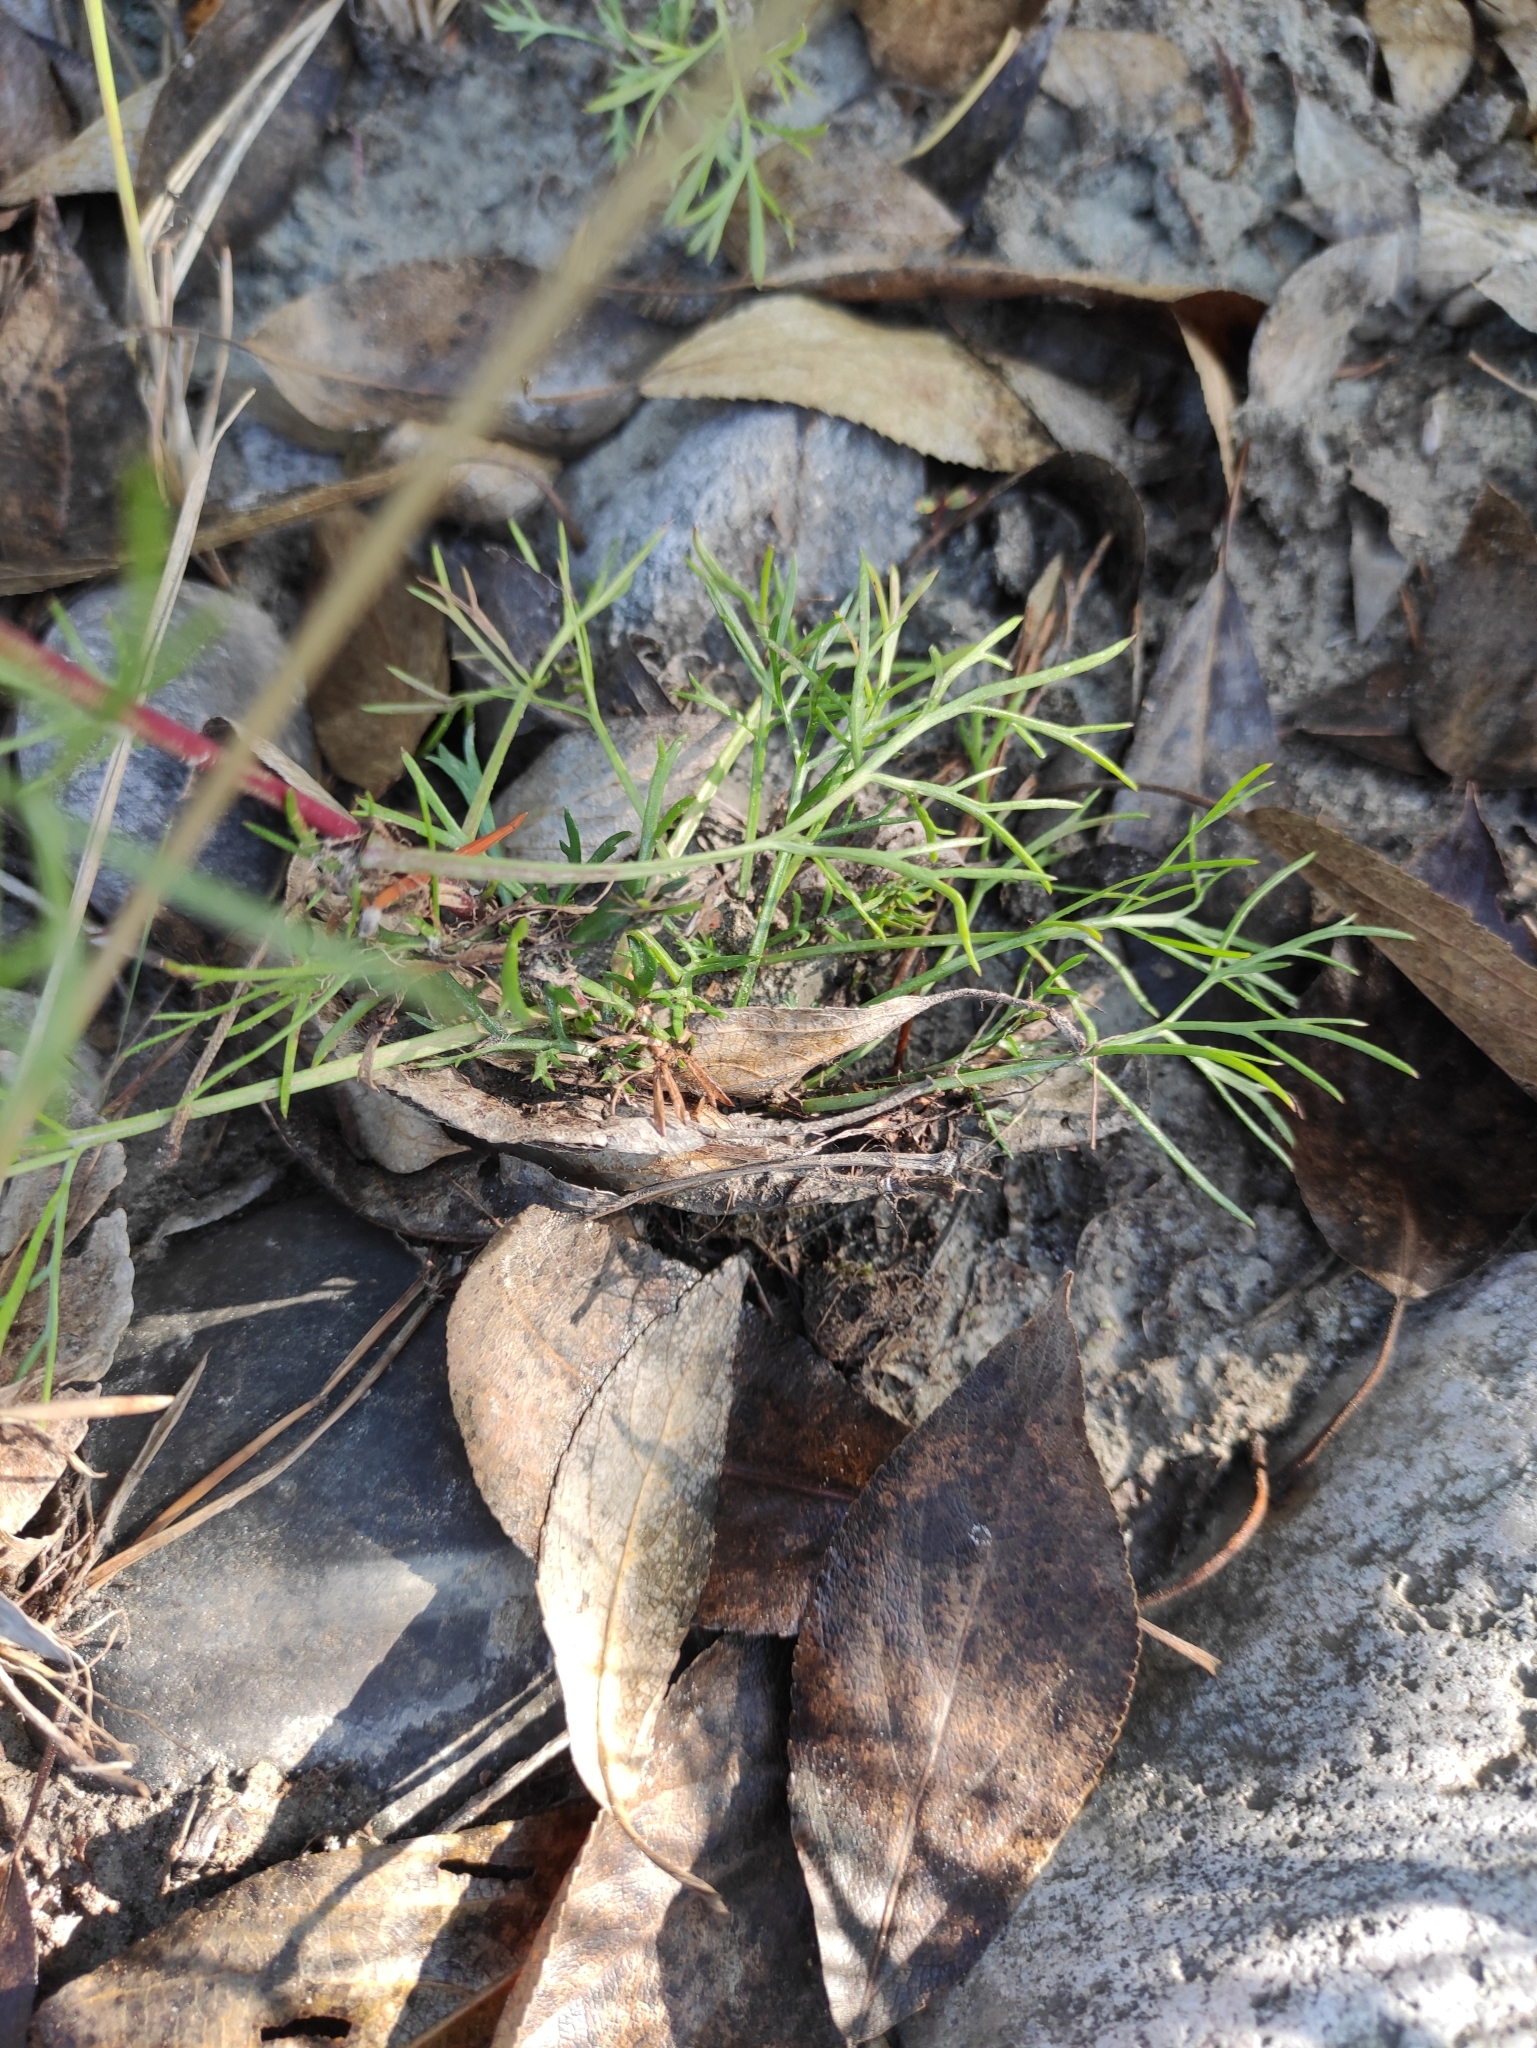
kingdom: Plantae
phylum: Tracheophyta
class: Magnoliopsida
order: Asterales
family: Asteraceae
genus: Artemisia
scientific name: Artemisia pubescens
